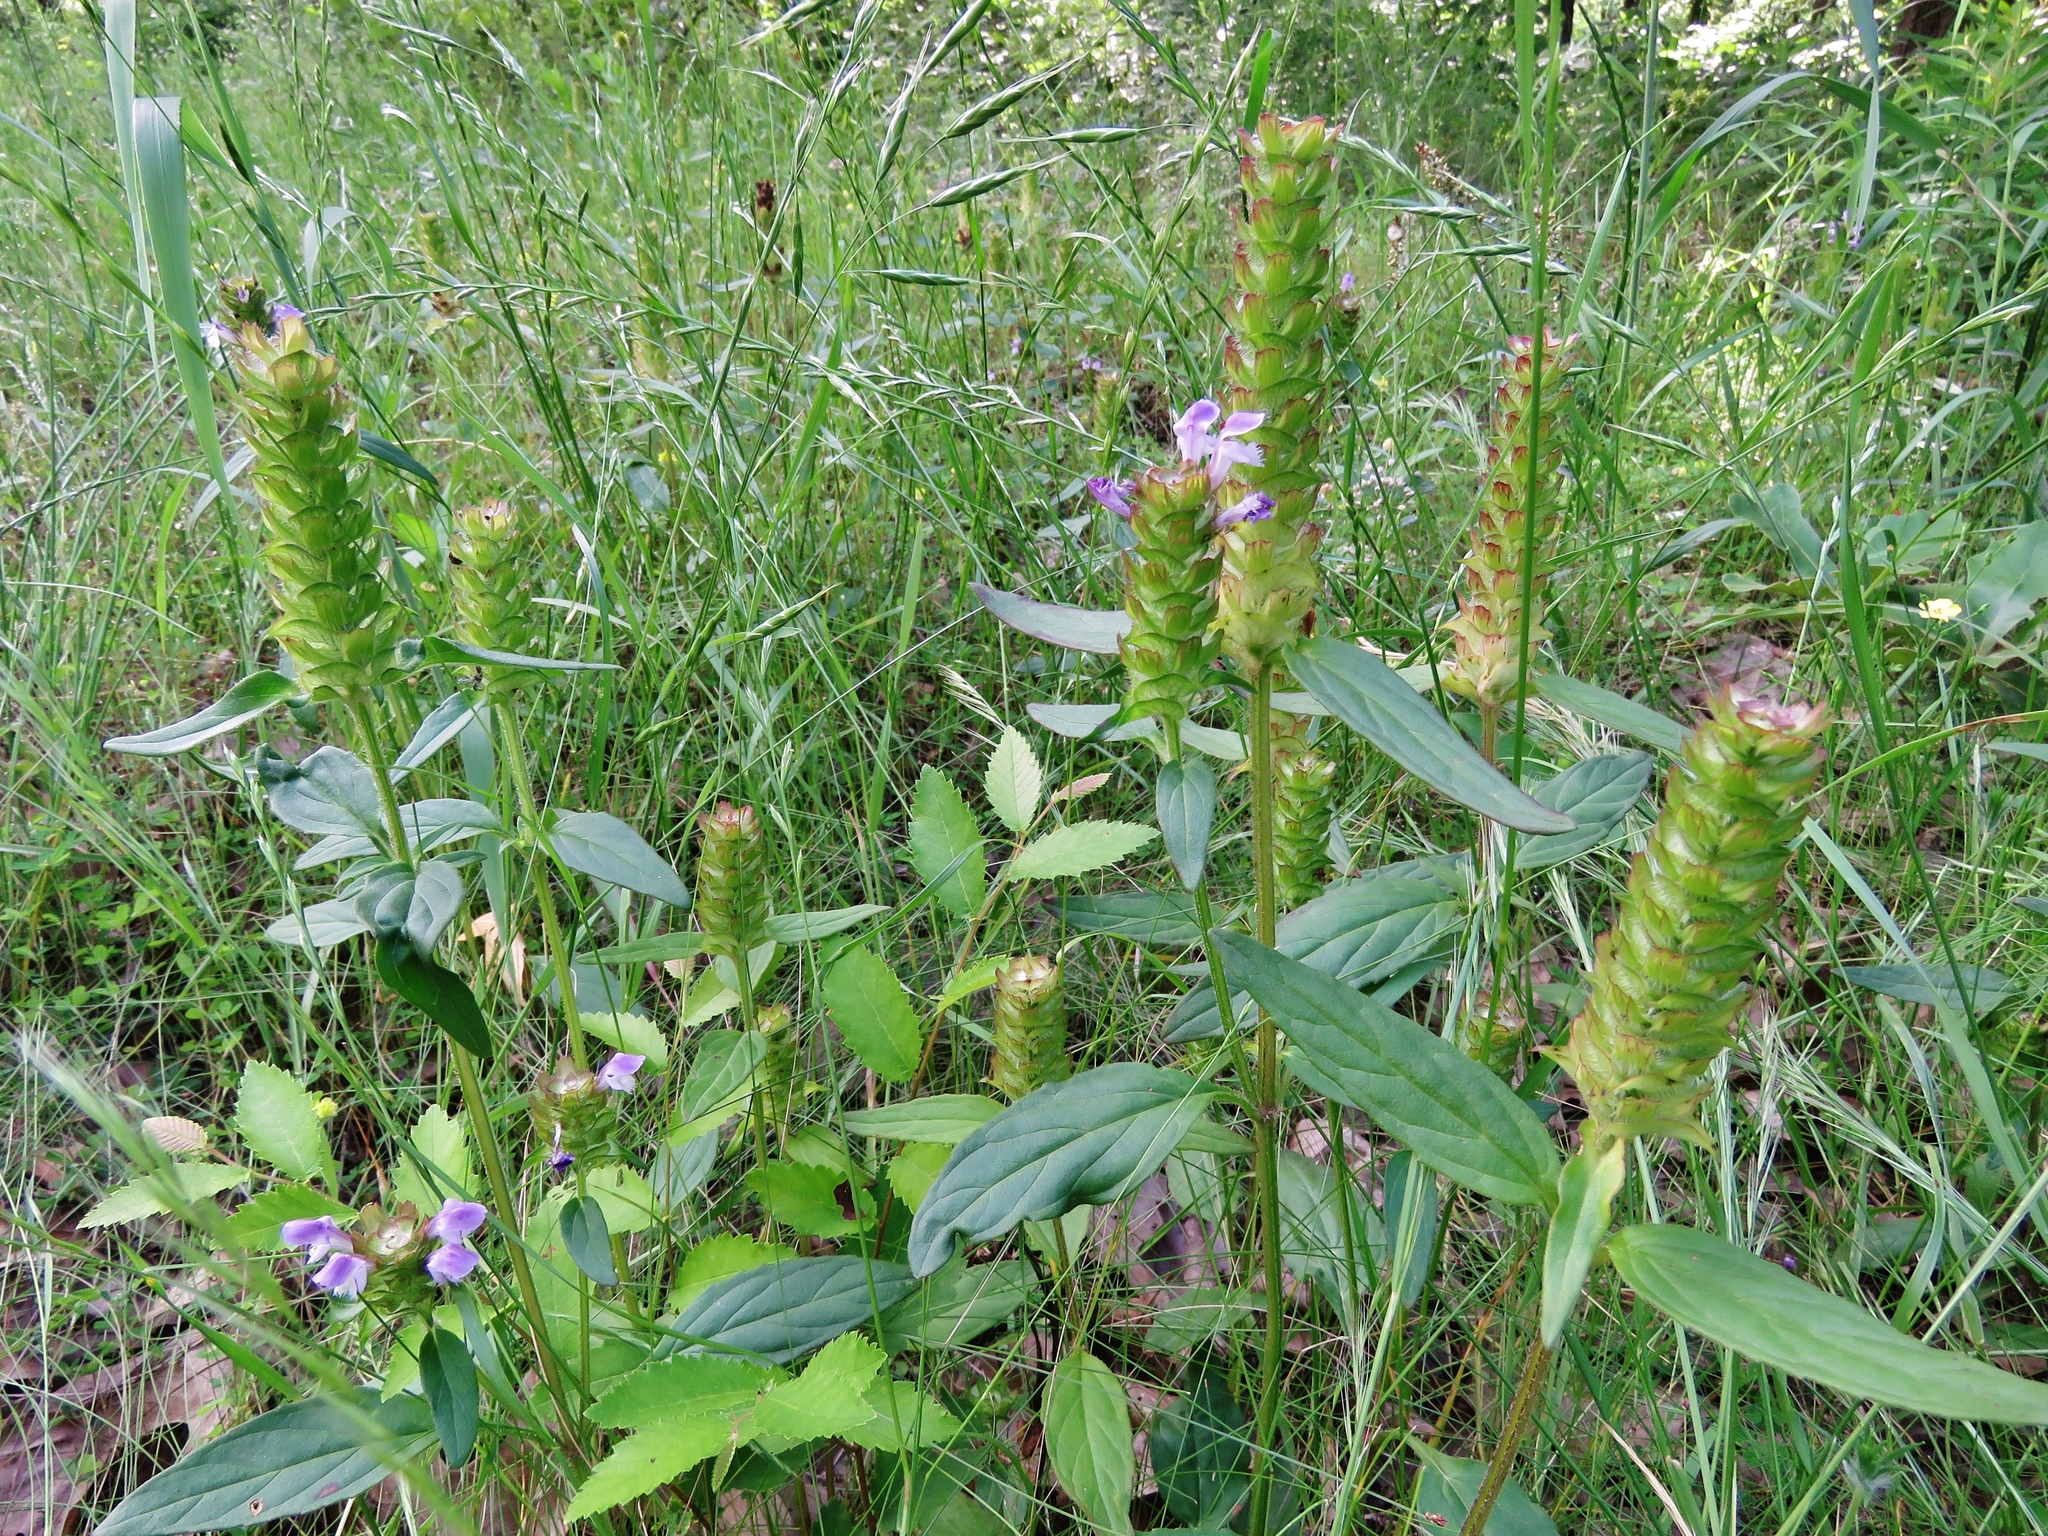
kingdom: Plantae
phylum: Tracheophyta
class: Magnoliopsida
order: Lamiales
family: Lamiaceae
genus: Prunella
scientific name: Prunella vulgaris
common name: Heal-all
